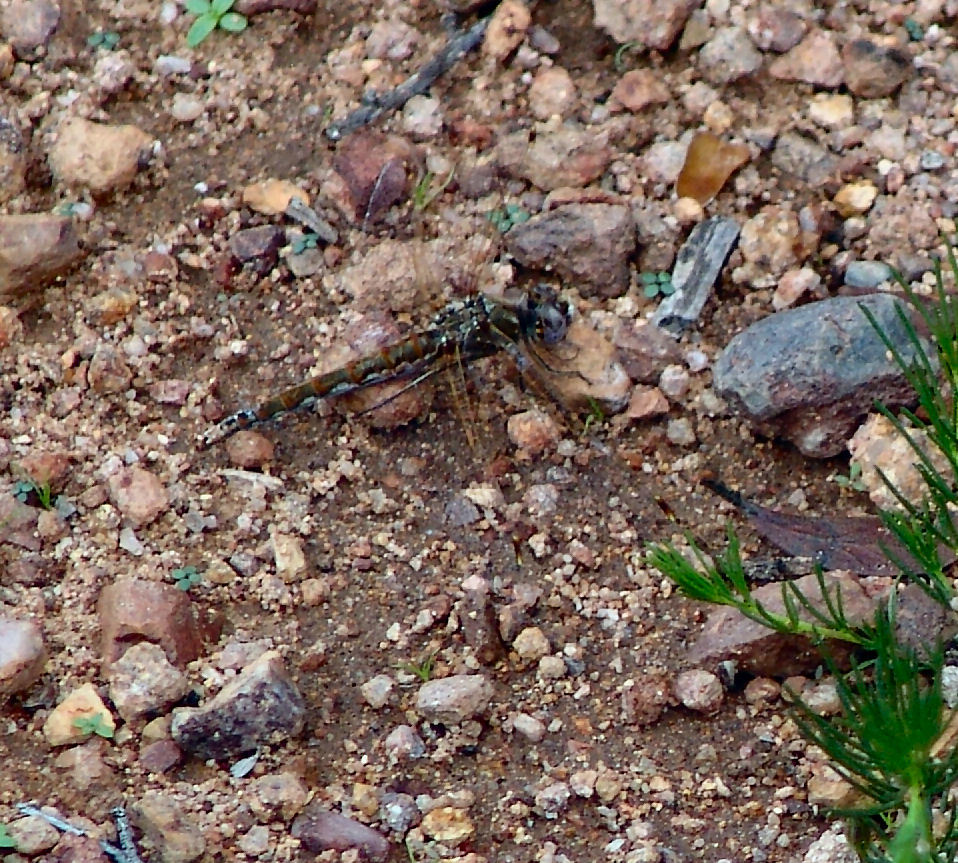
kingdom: Animalia
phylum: Arthropoda
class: Insecta
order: Odonata
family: Libellulidae
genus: Sympetrum
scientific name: Sympetrum corruptum
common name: Variegated meadowhawk
